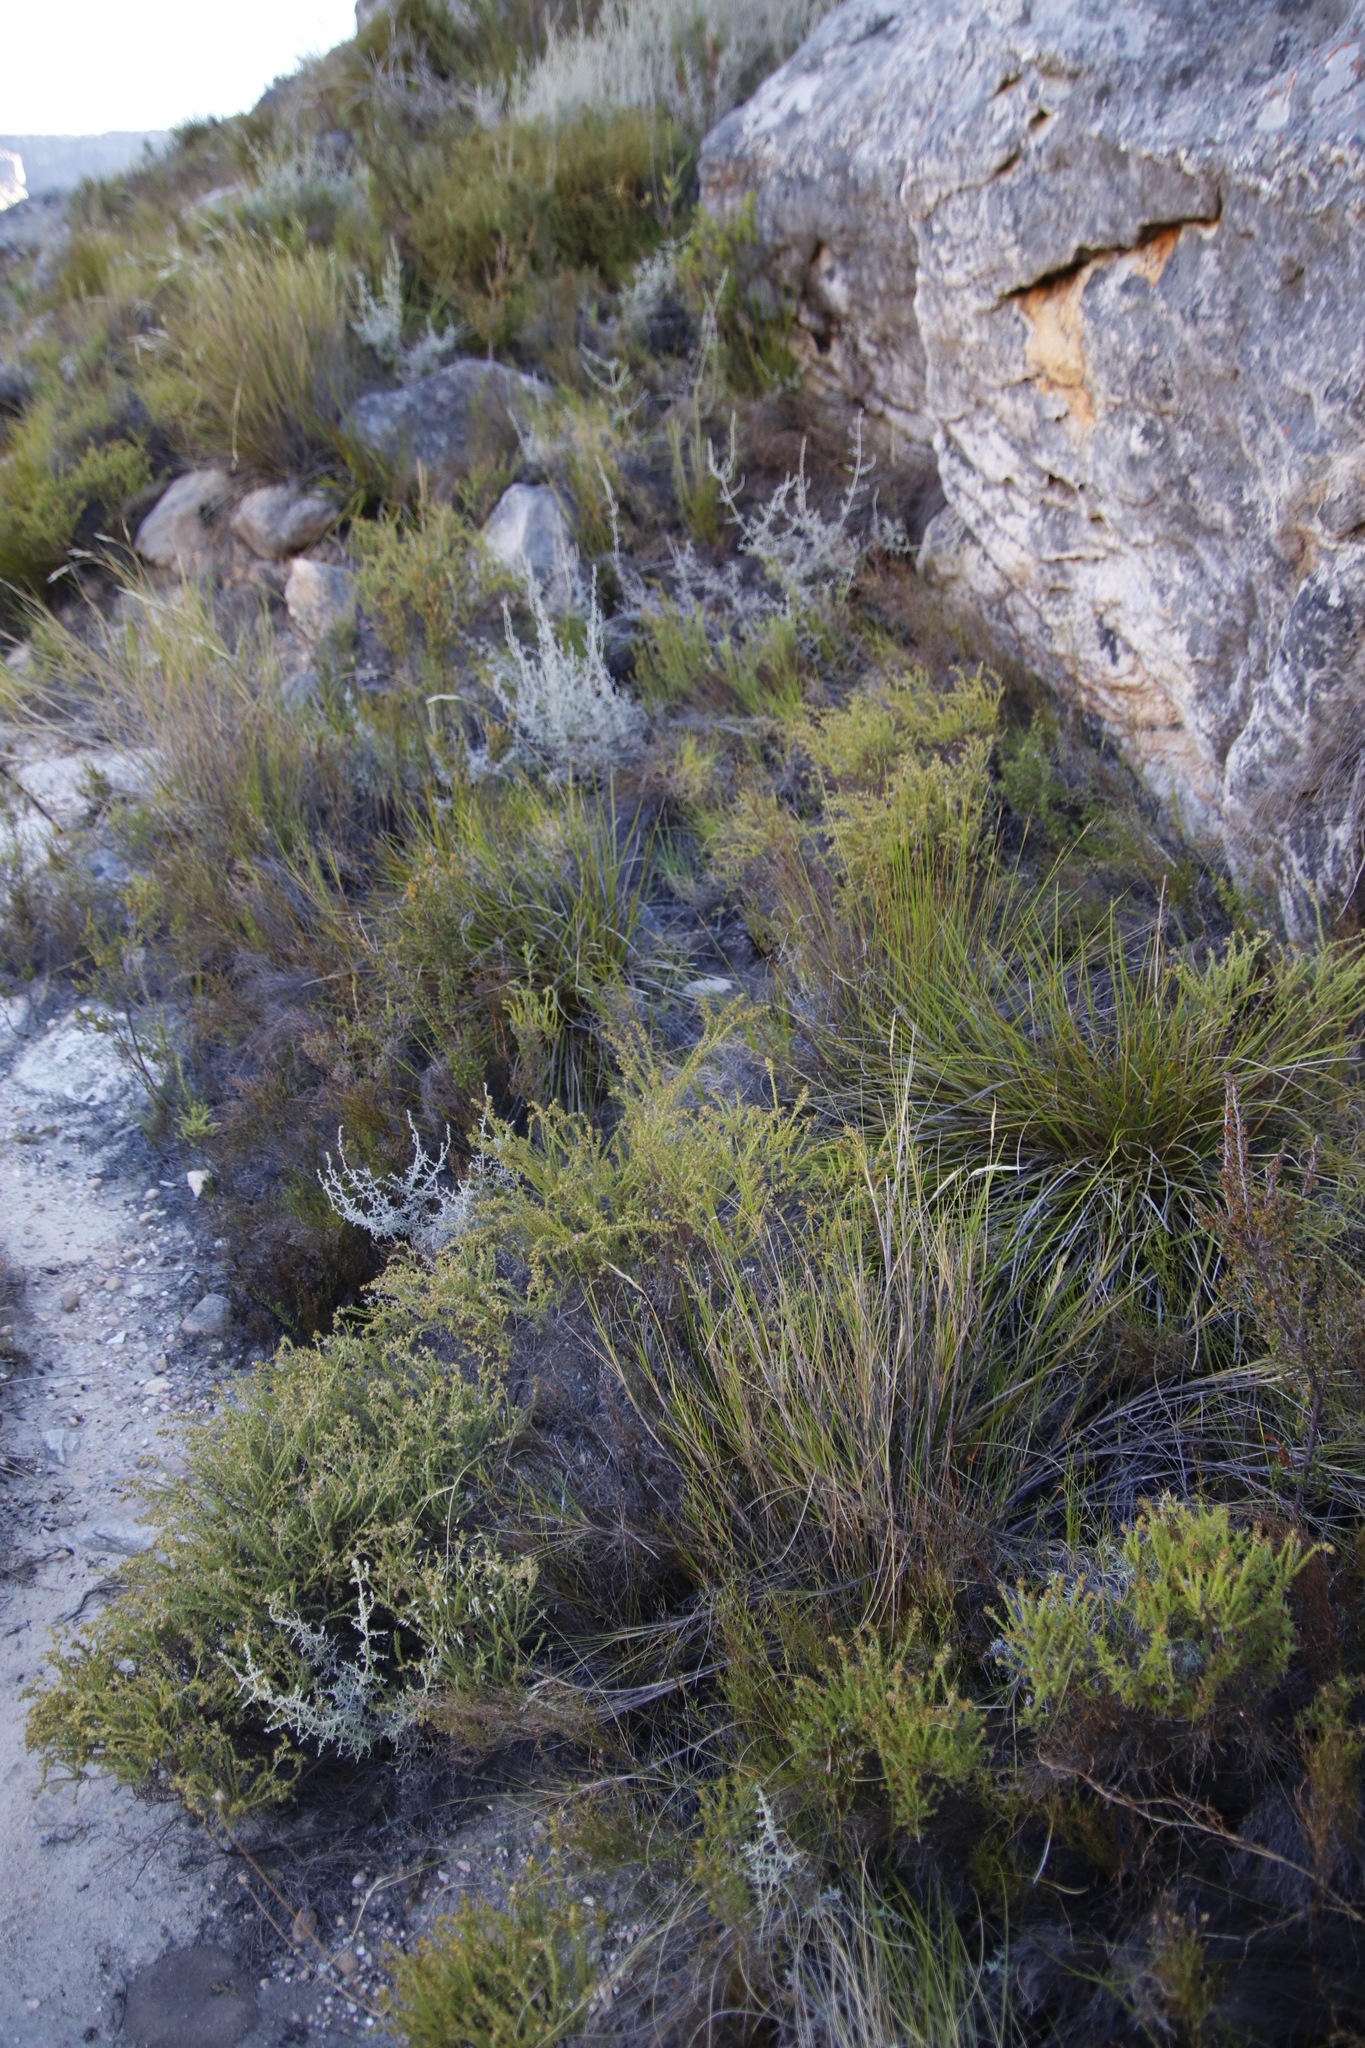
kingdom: Plantae
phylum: Tracheophyta
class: Magnoliopsida
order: Asterales
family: Asteraceae
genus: Myrovernix
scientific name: Myrovernix scaber
